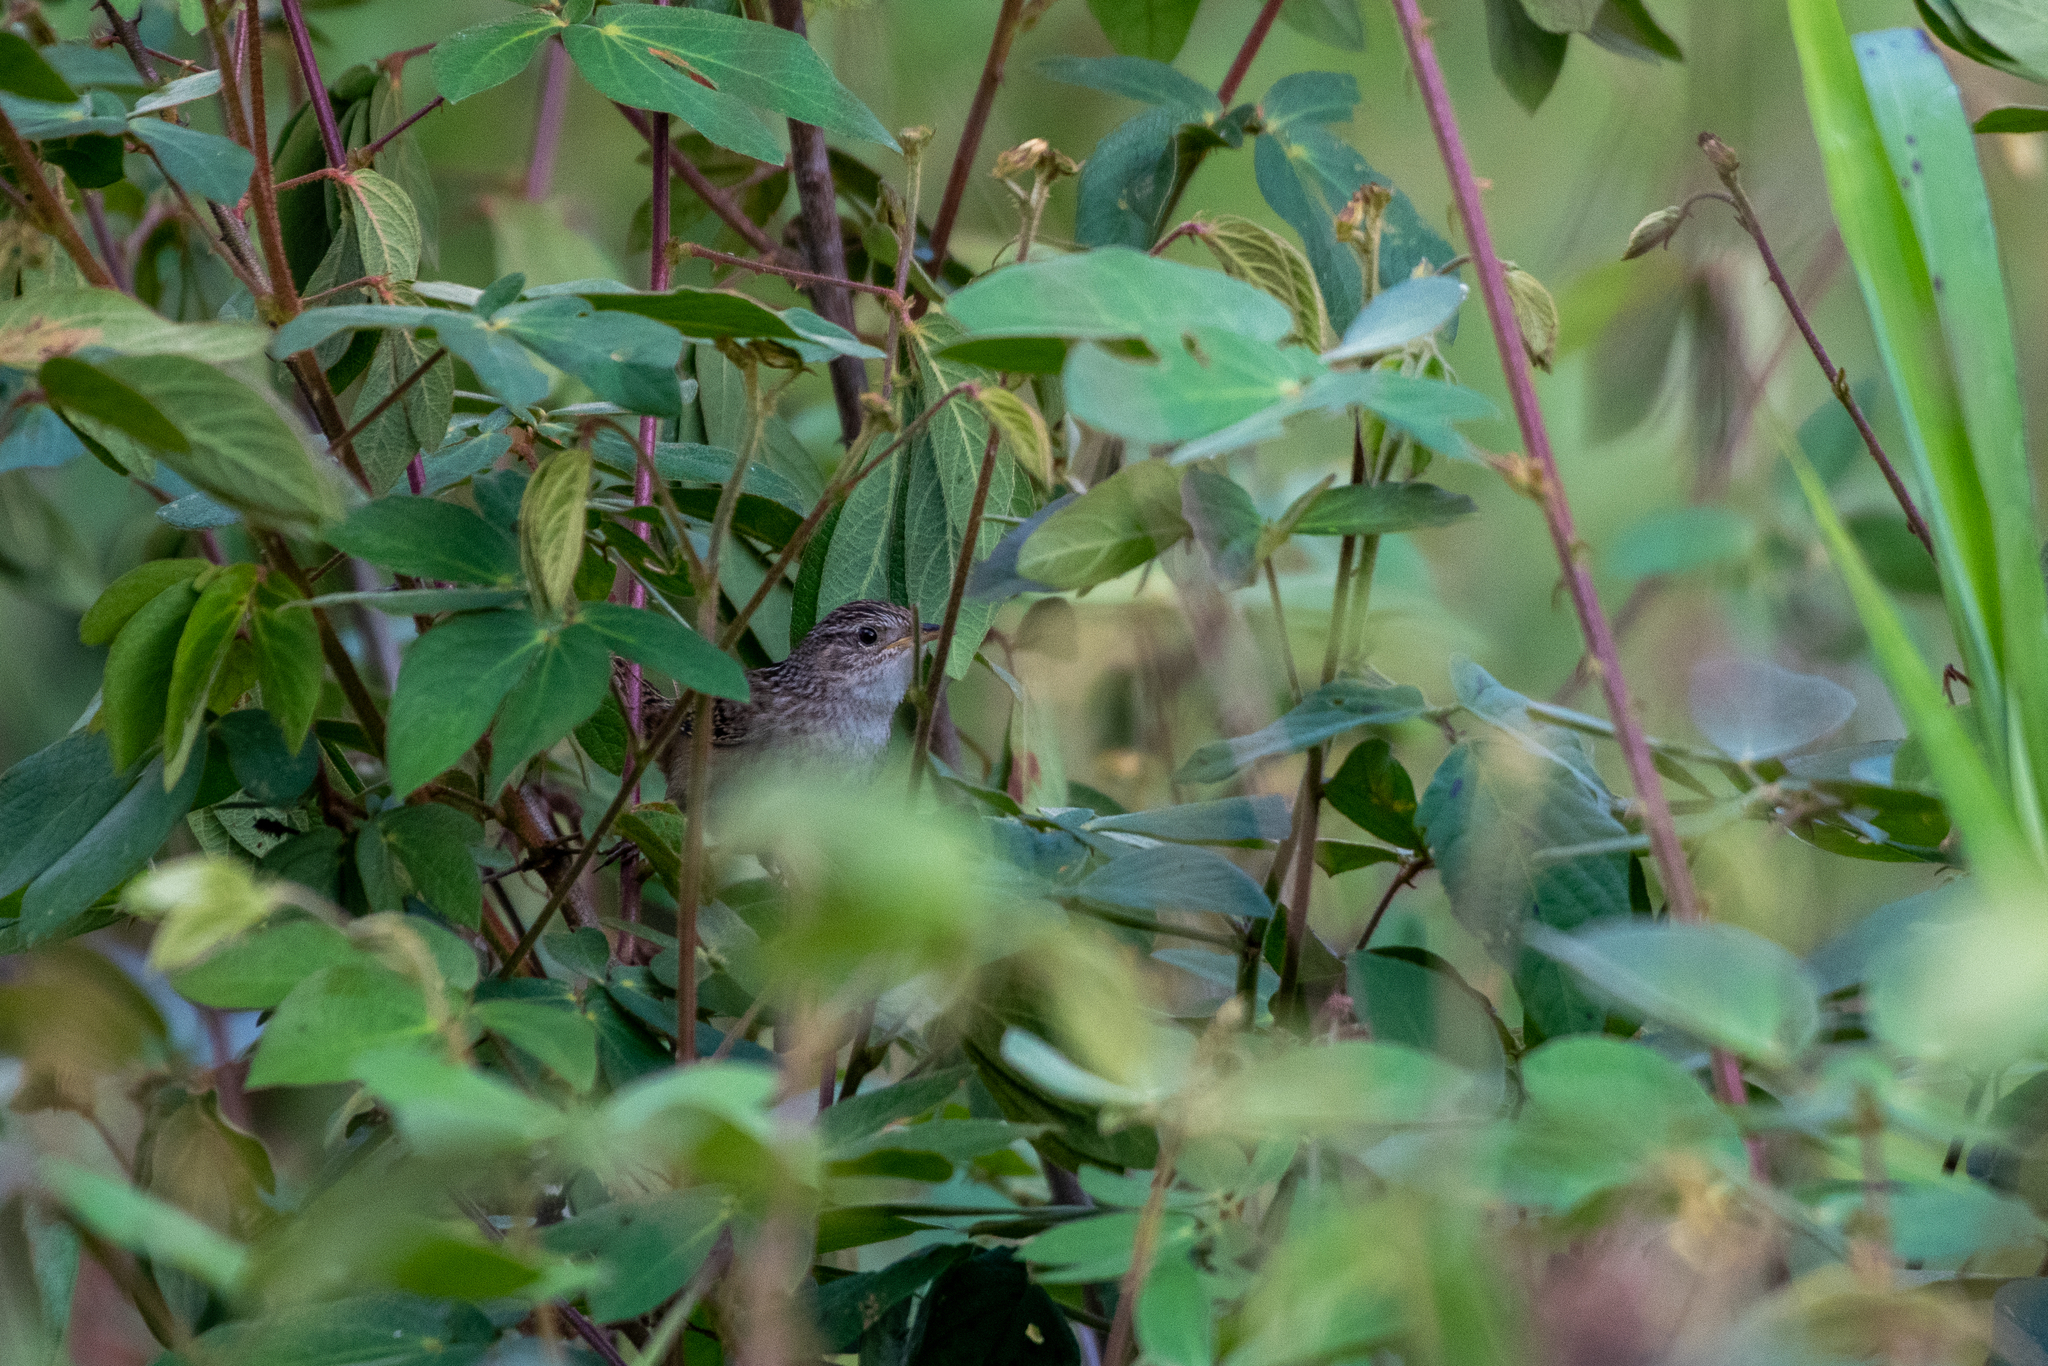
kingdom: Animalia
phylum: Chordata
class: Aves
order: Passeriformes
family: Troglodytidae
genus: Cistothorus
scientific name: Cistothorus platensis
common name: Sedge wren
